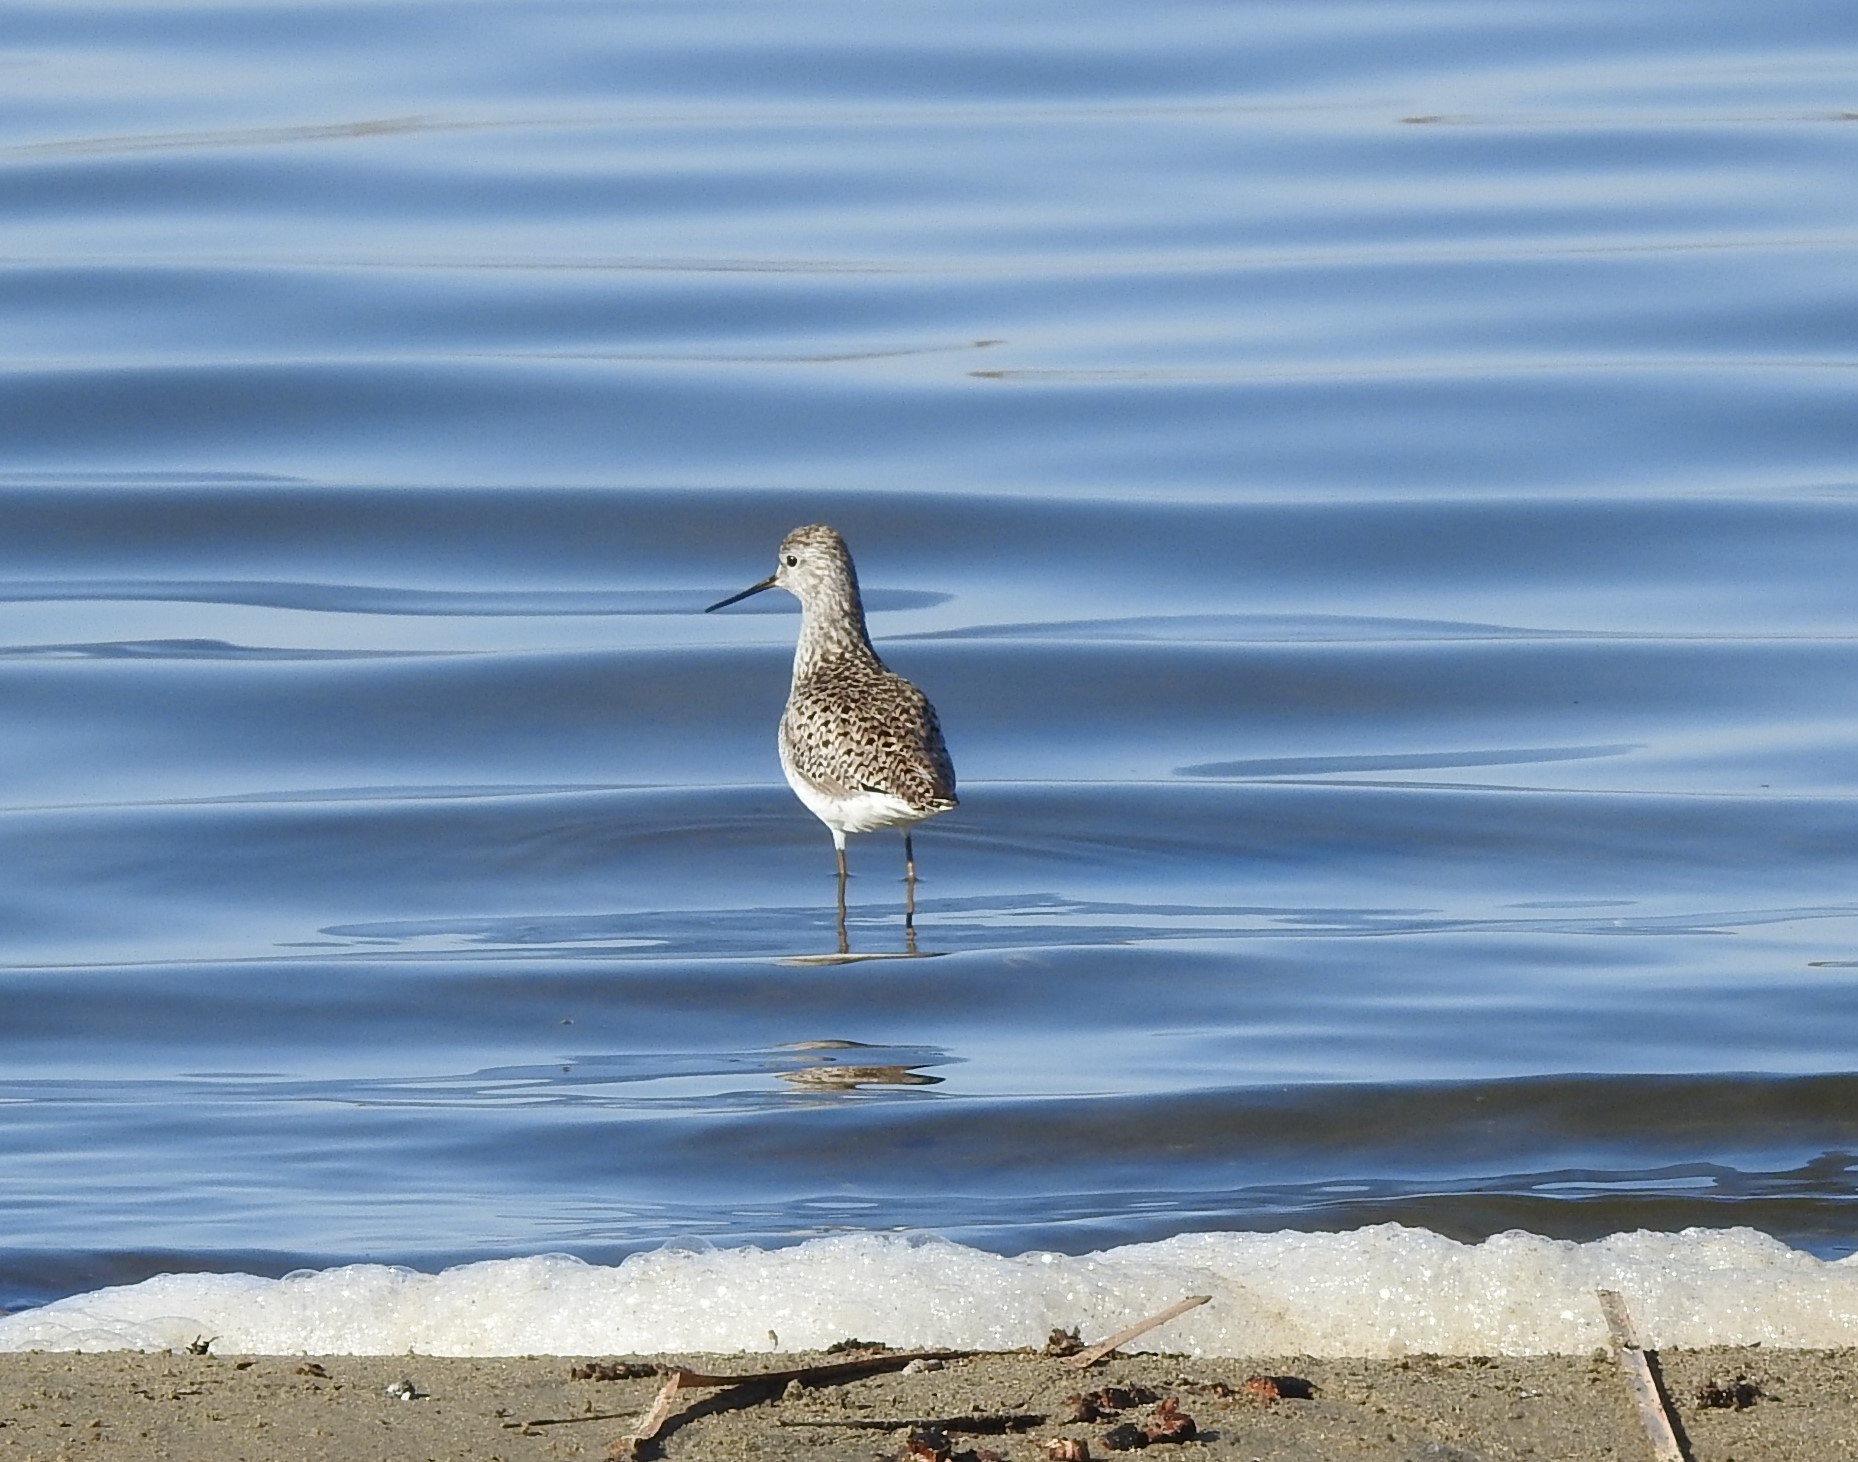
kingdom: Animalia
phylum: Chordata
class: Aves
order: Charadriiformes
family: Scolopacidae
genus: Tringa
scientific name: Tringa stagnatilis
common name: Marsh sandpiper
